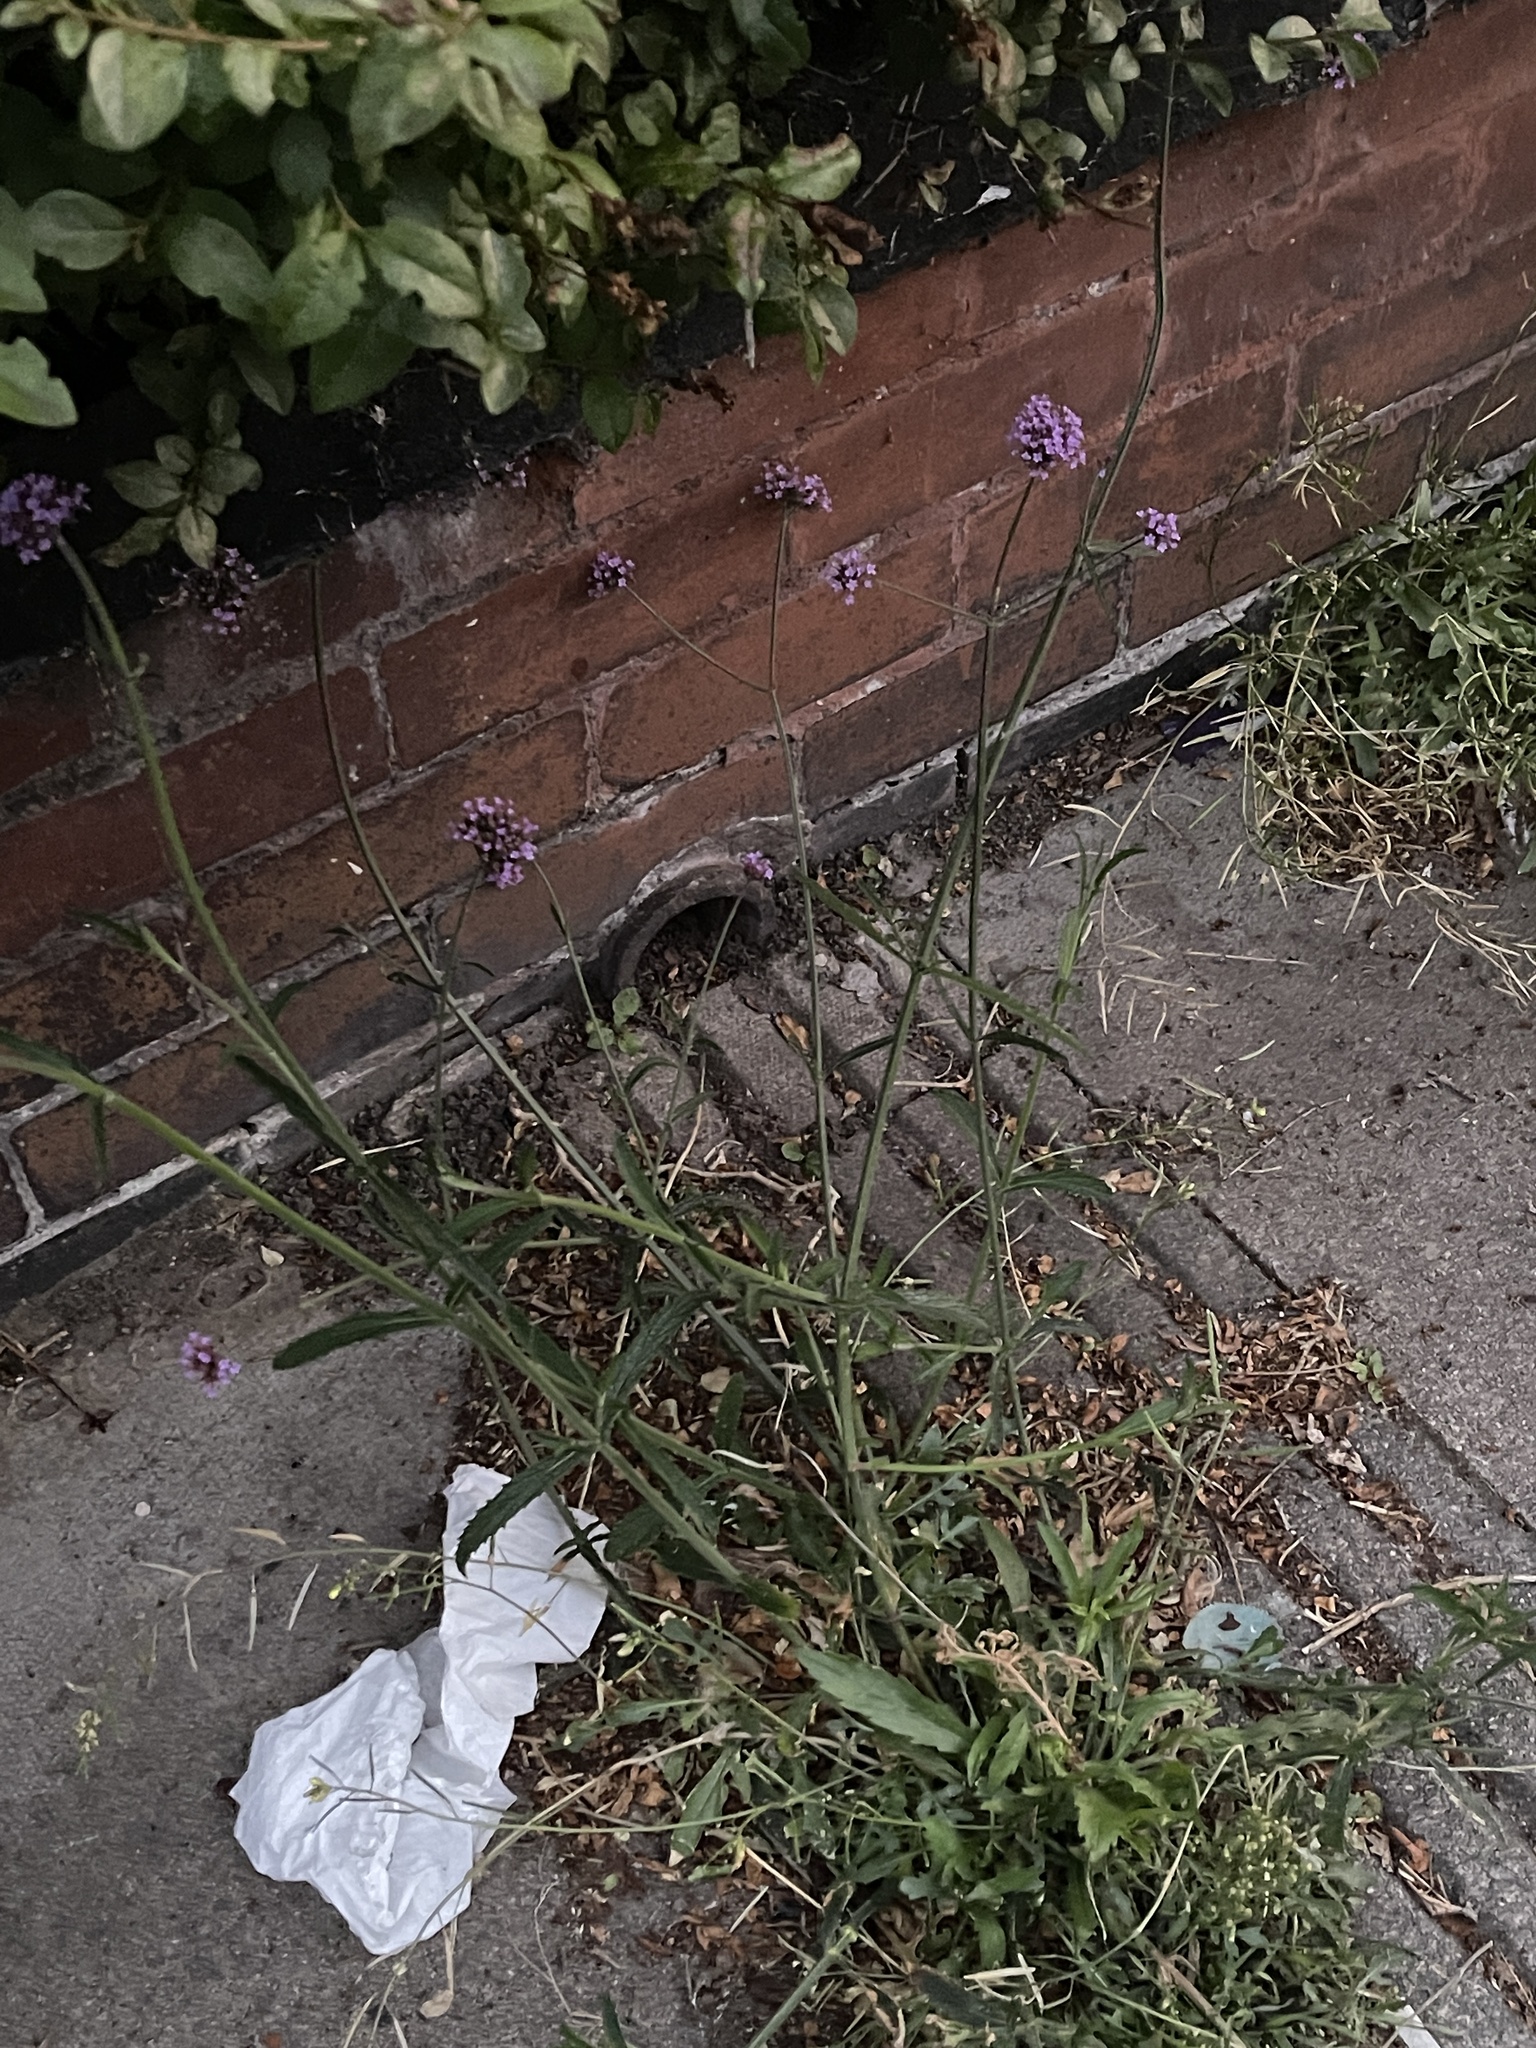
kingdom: Plantae
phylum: Tracheophyta
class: Magnoliopsida
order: Lamiales
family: Verbenaceae
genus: Verbena
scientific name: Verbena bonariensis
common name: Purpletop vervain
